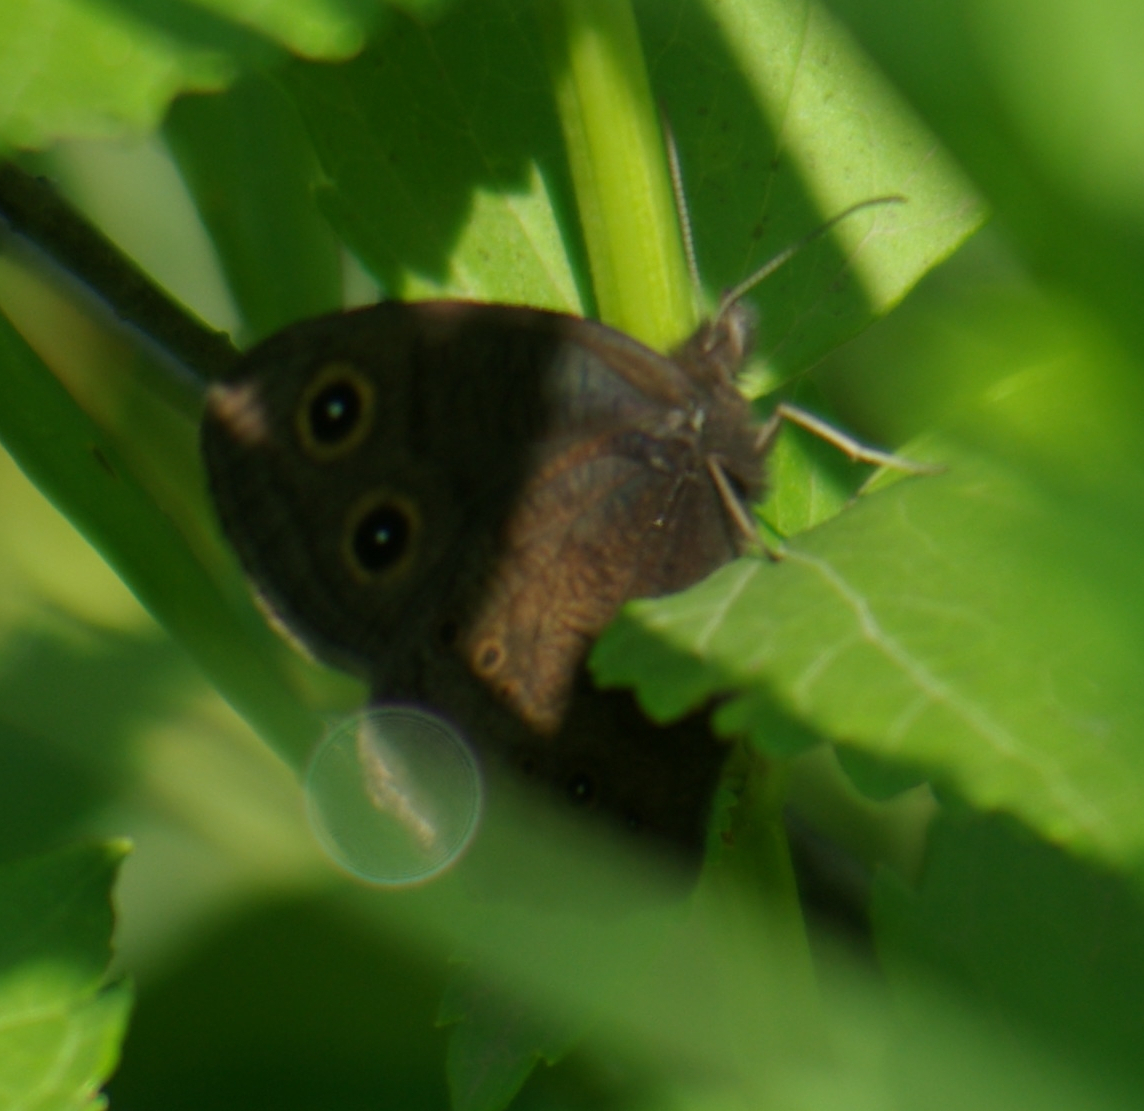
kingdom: Animalia
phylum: Arthropoda
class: Insecta
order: Lepidoptera
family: Nymphalidae
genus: Cercyonis
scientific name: Cercyonis pegala
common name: Common wood-nymph
